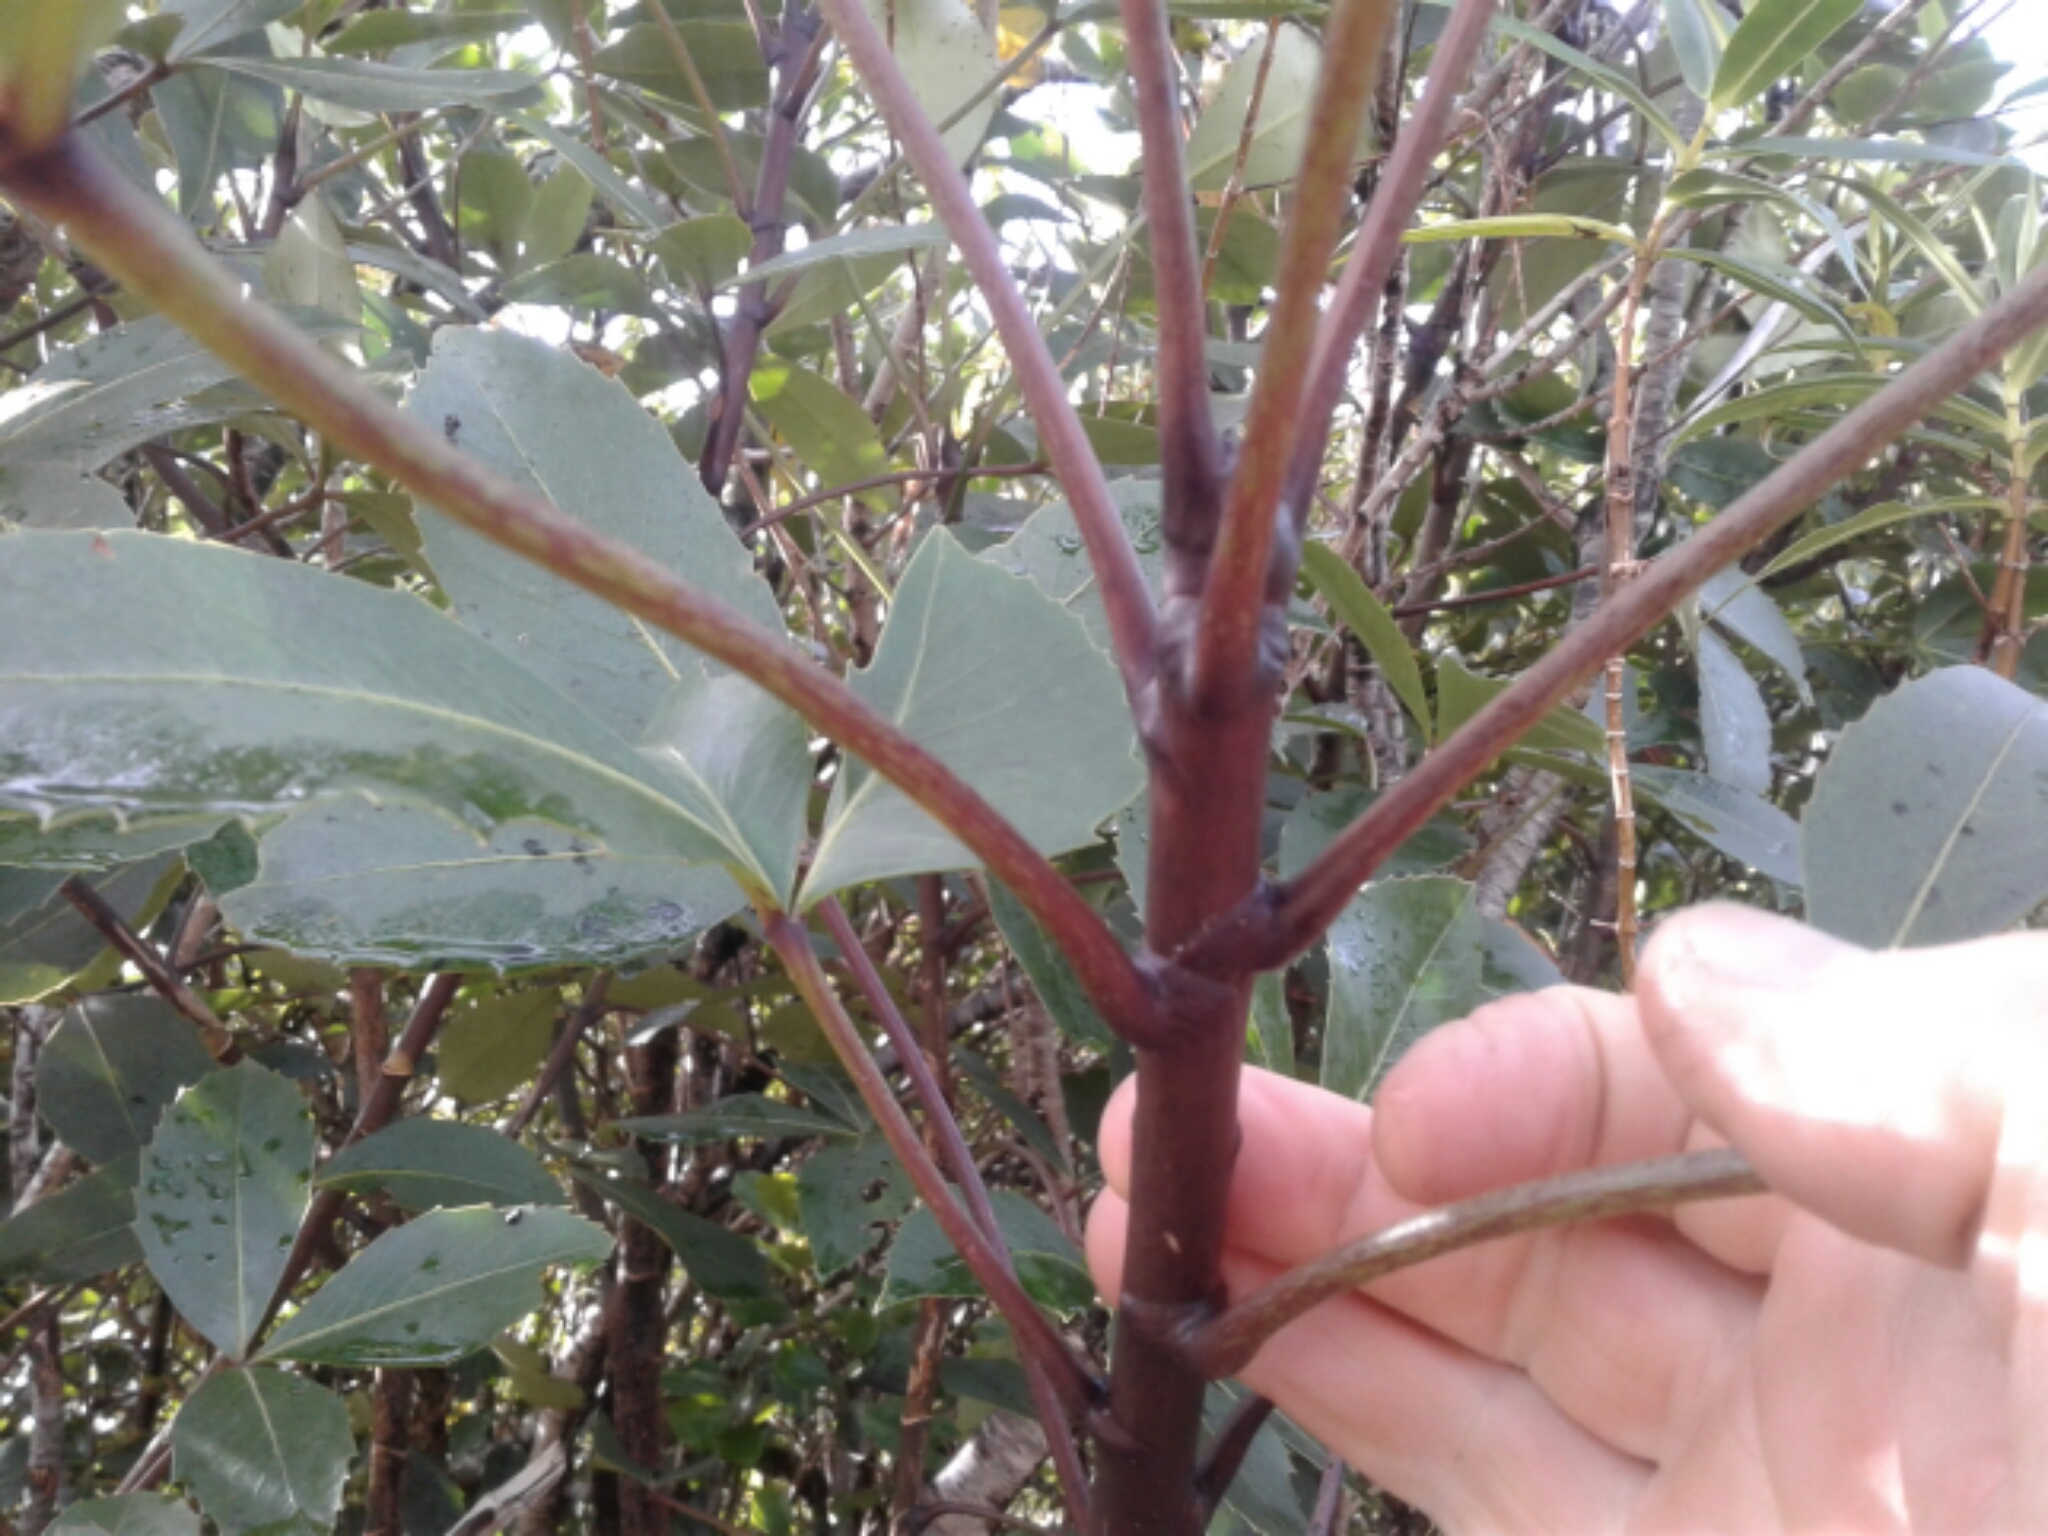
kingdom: Plantae
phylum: Tracheophyta
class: Magnoliopsida
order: Apiales
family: Araliaceae
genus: Neopanax
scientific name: Neopanax colensoi
